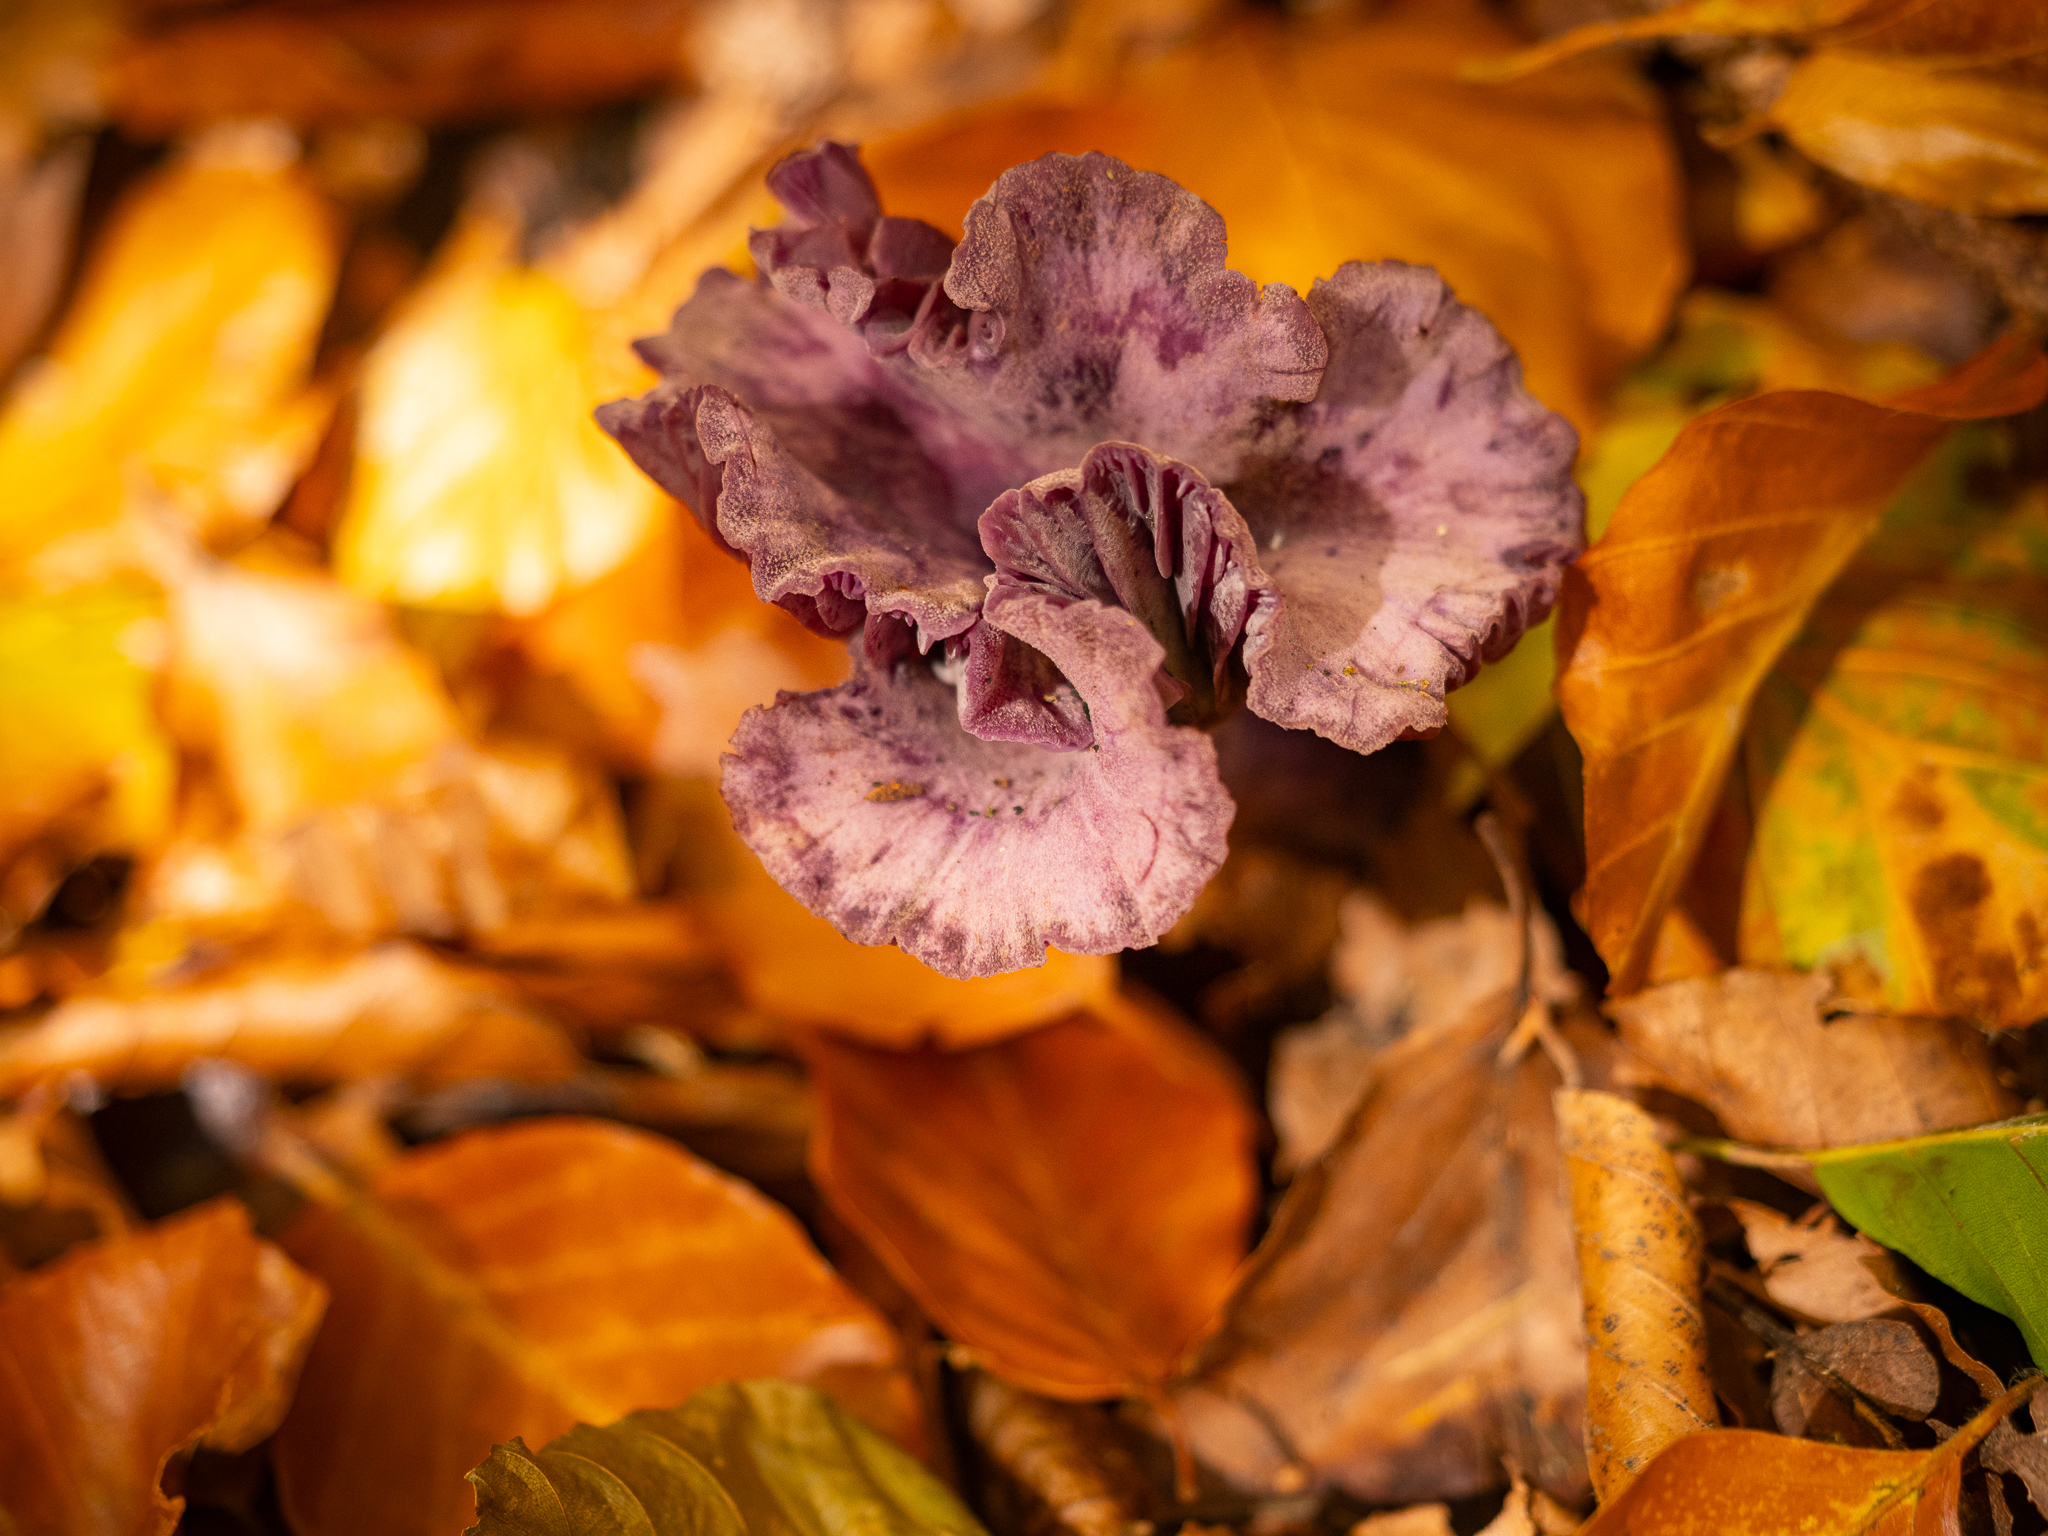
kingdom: Fungi
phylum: Basidiomycota
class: Agaricomycetes
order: Agaricales
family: Hydnangiaceae
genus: Laccaria
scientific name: Laccaria amethystina
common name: Amethyst deceiver
